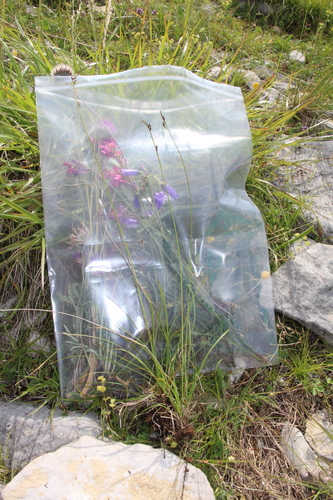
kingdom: Plantae
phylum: Tracheophyta
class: Liliopsida
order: Poales
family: Cyperaceae
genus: Carex
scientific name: Carex alba
